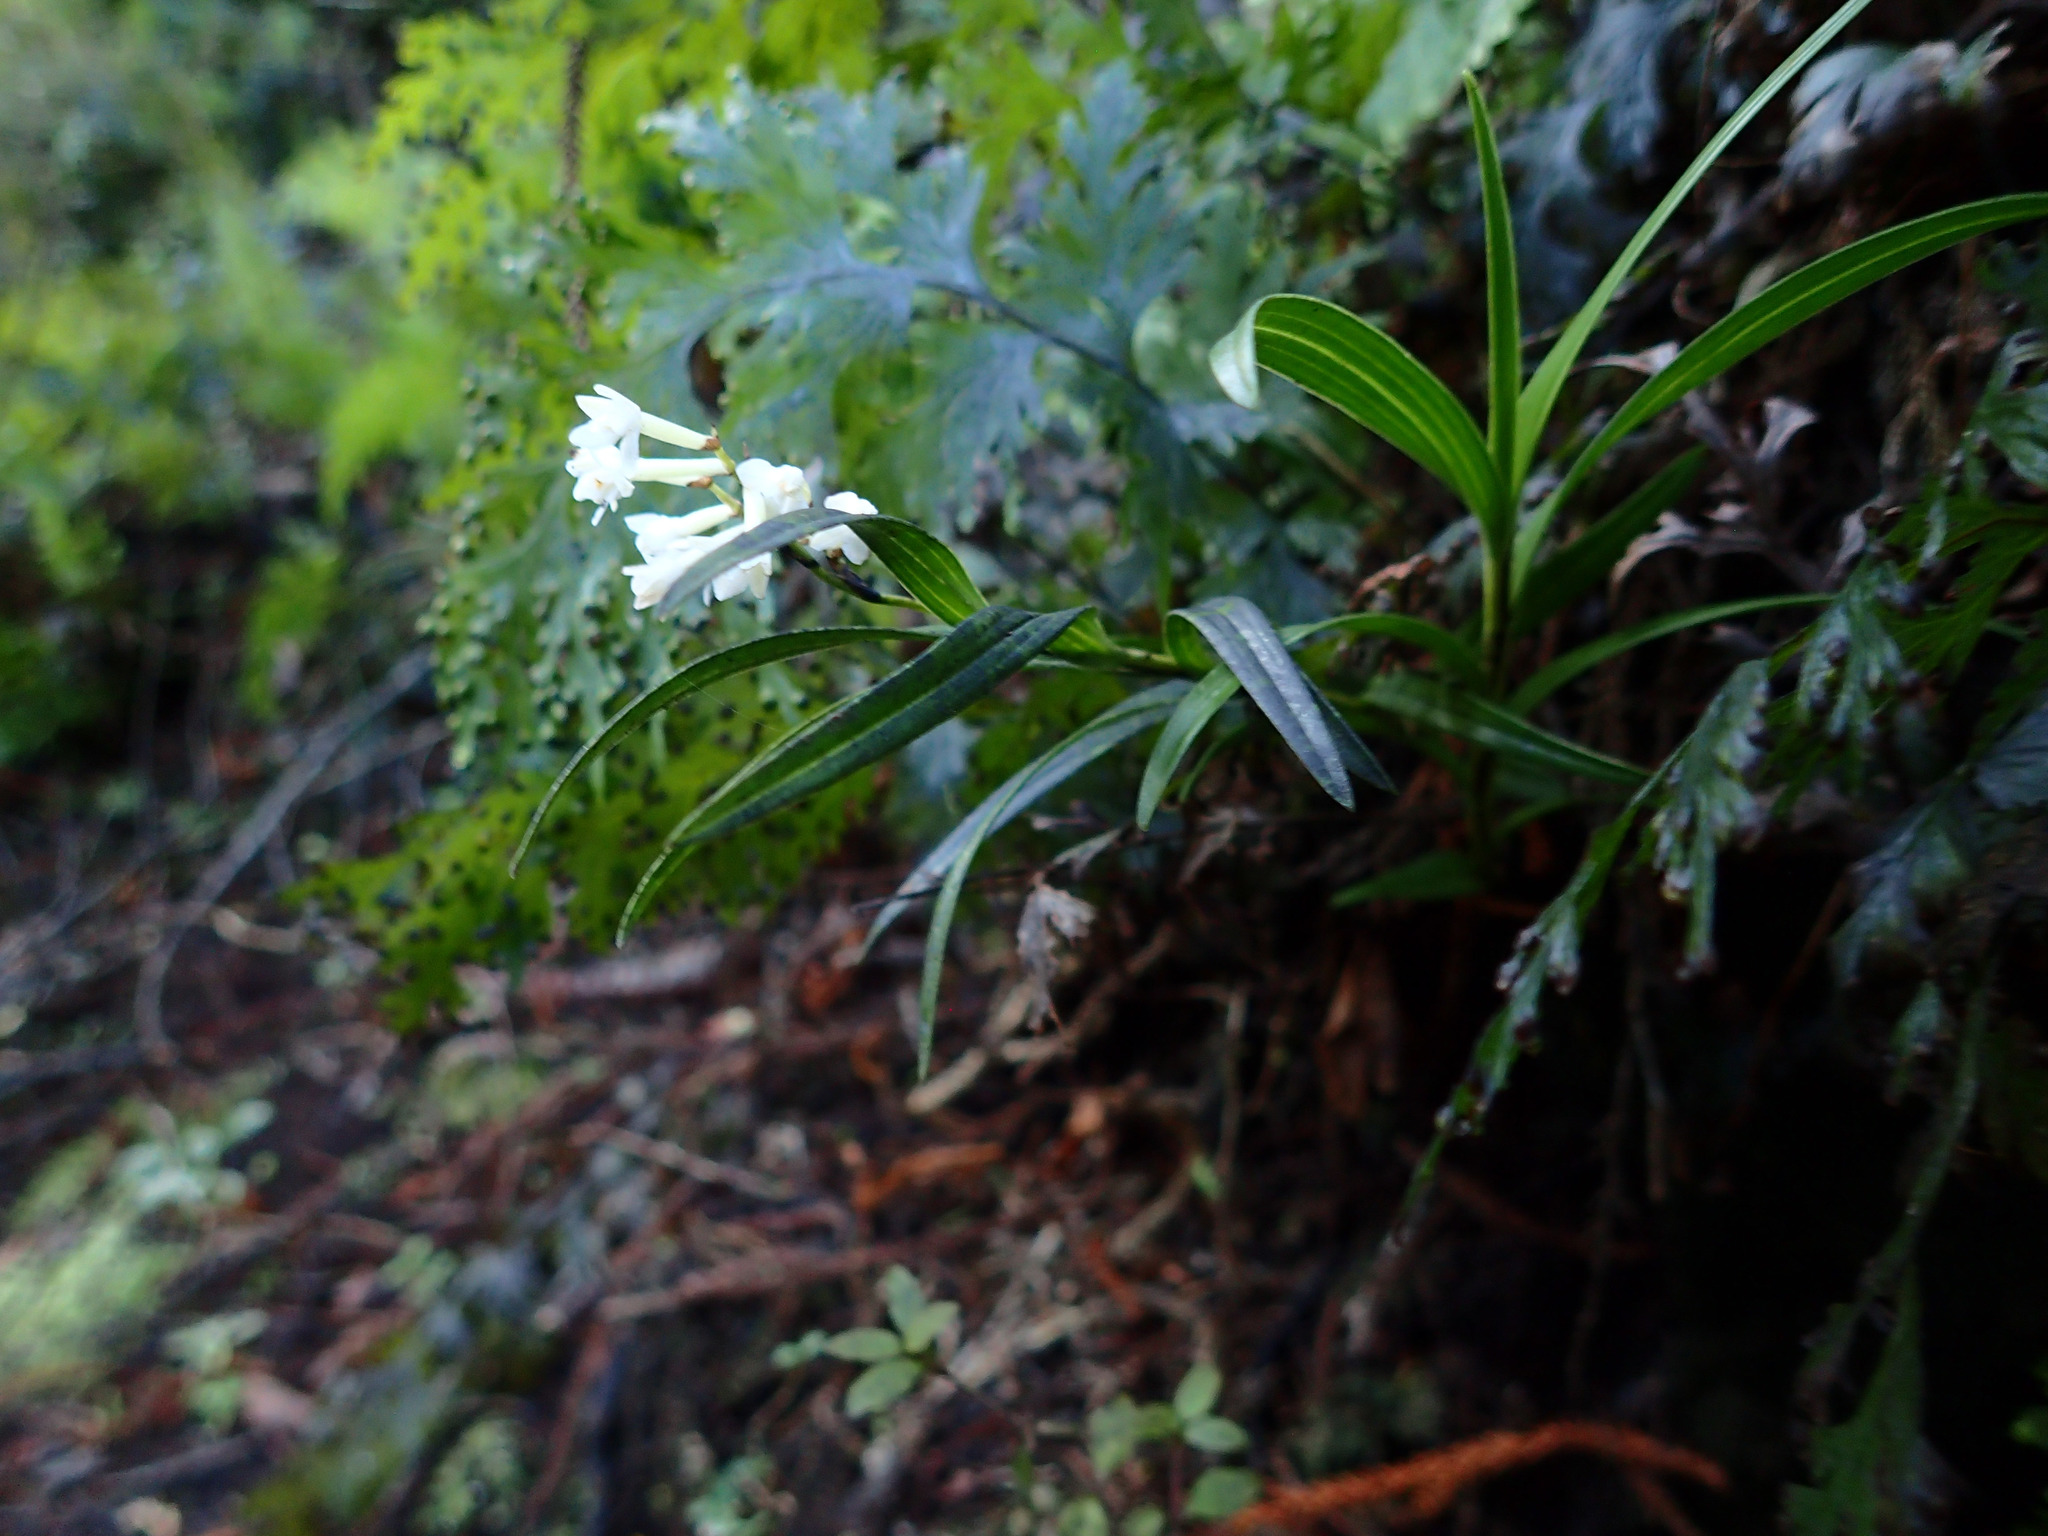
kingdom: Plantae
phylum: Tracheophyta
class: Liliopsida
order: Asparagales
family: Orchidaceae
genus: Earina
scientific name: Earina autumnalis
